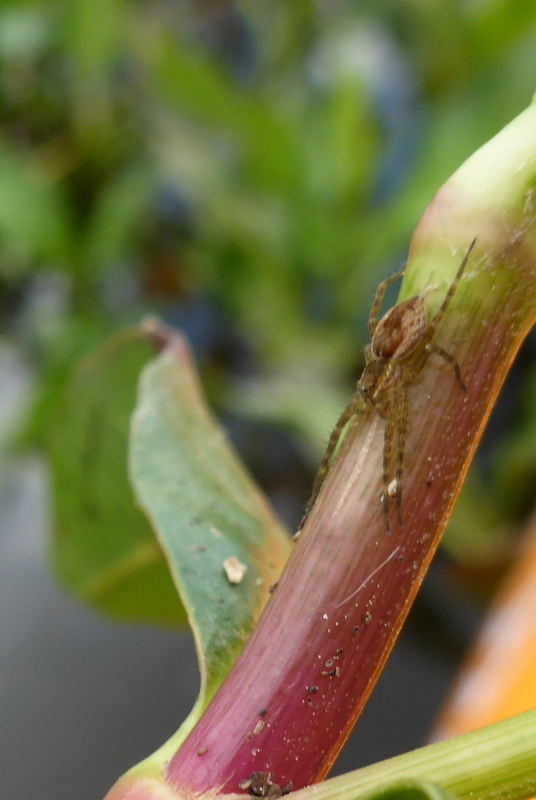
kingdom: Animalia
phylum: Arthropoda
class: Arachnida
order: Araneae
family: Pisauridae
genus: Pisaurina
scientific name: Pisaurina mira
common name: American nursery web spider
